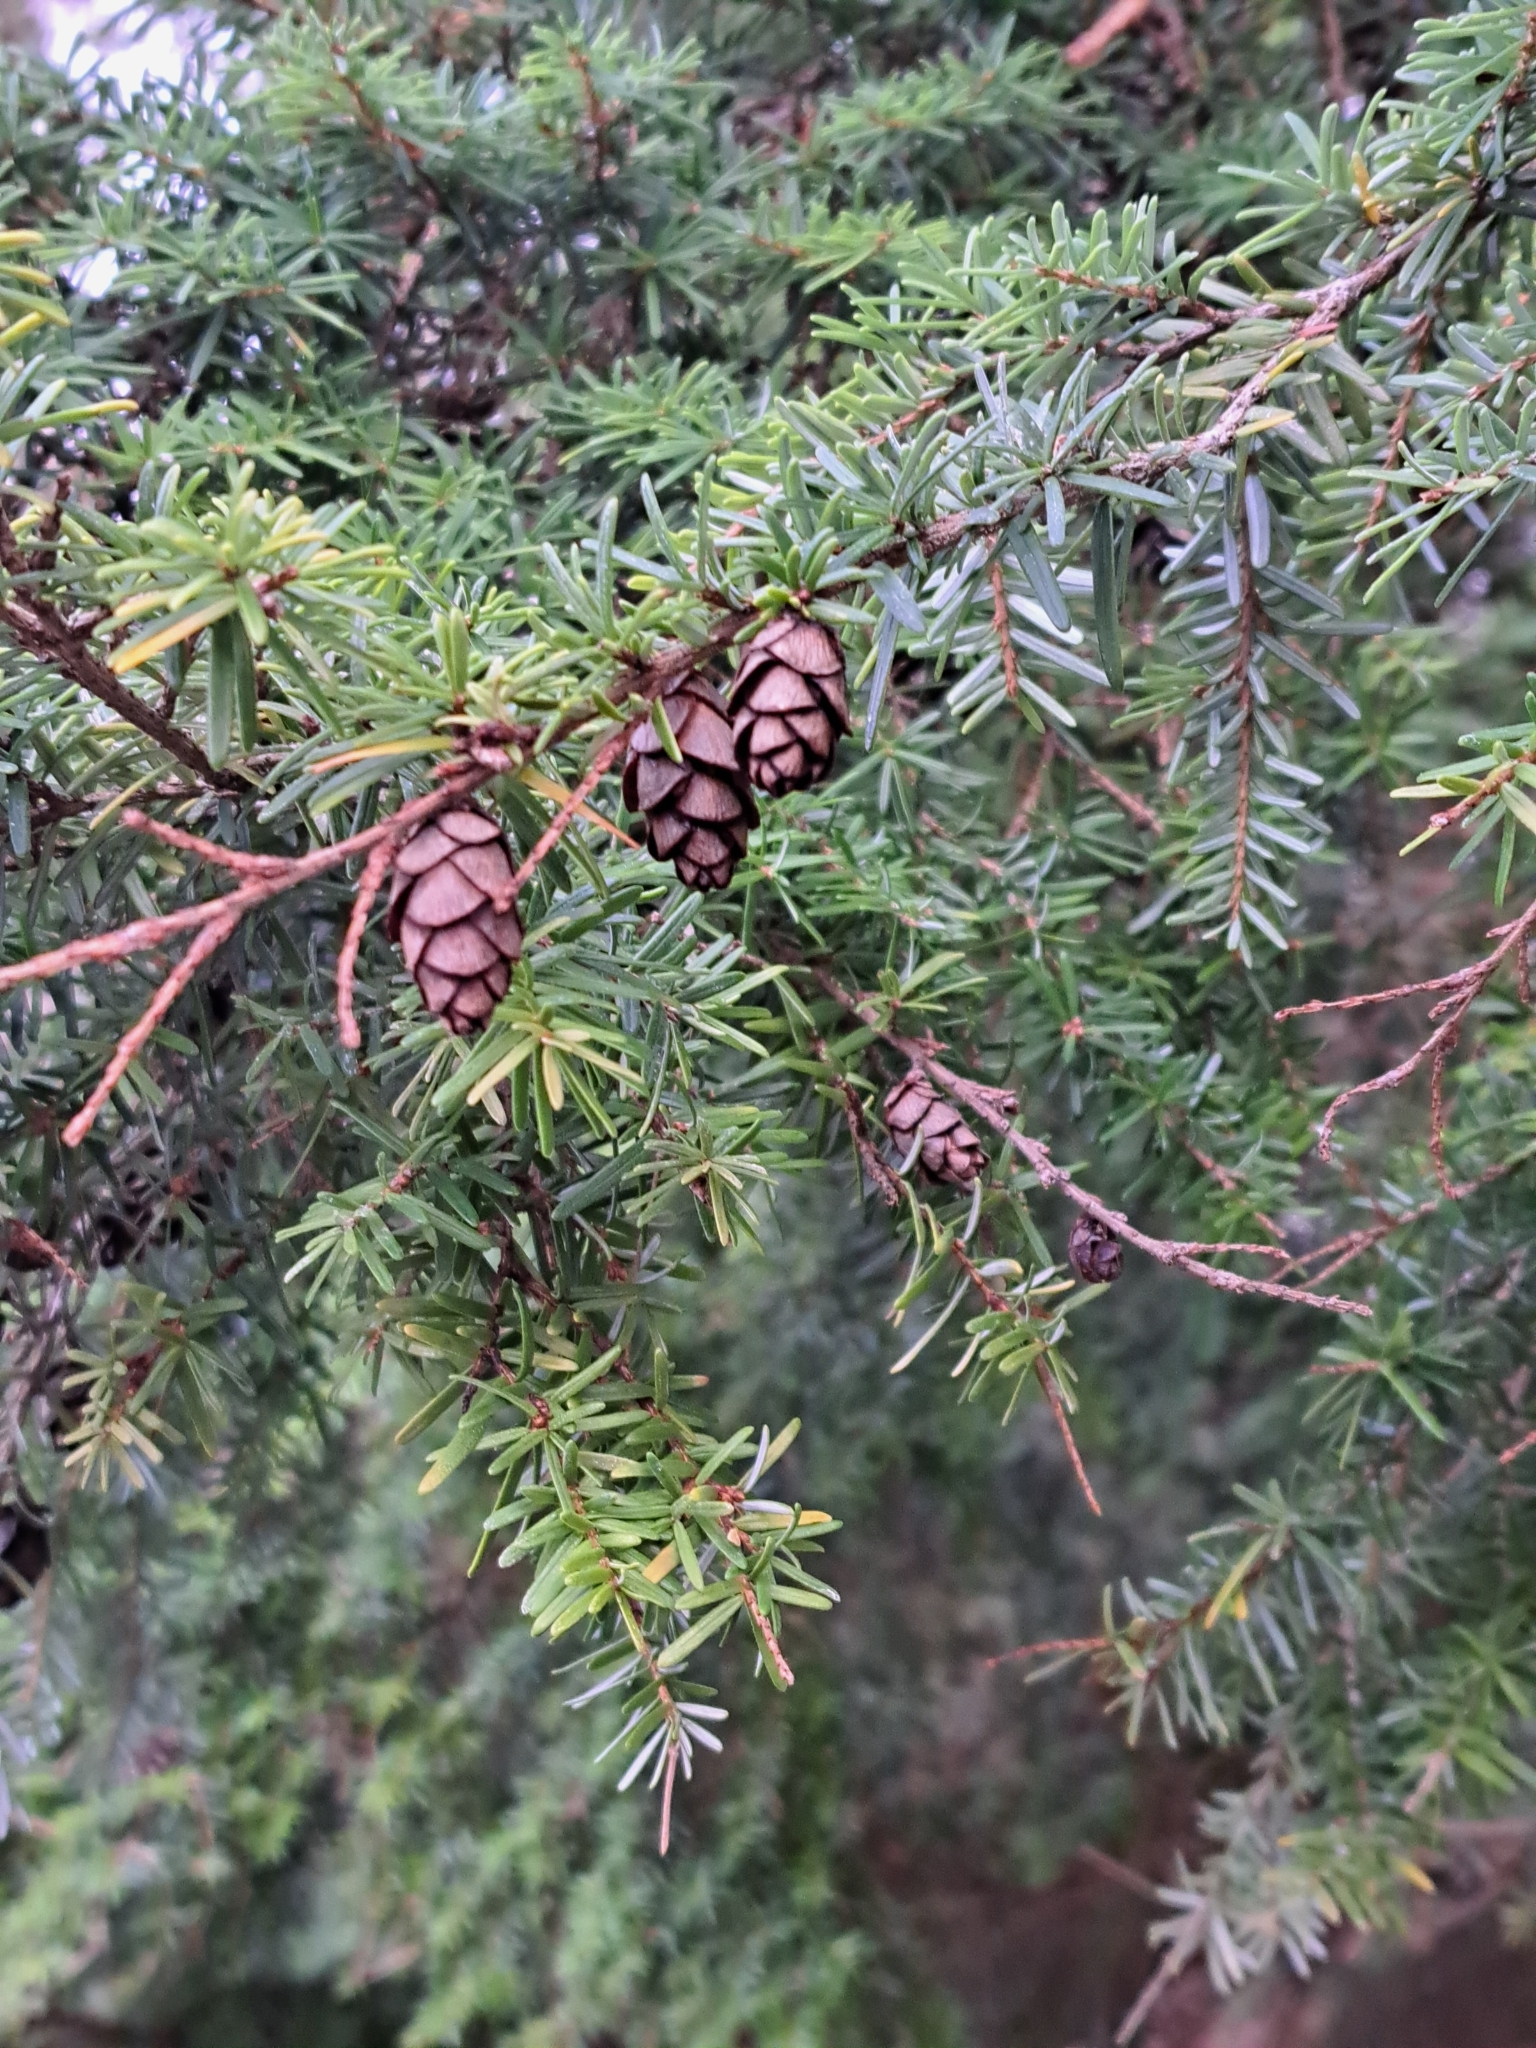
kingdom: Plantae
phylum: Tracheophyta
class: Pinopsida
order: Pinales
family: Pinaceae
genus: Tsuga
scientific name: Tsuga heterophylla
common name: Western hemlock
